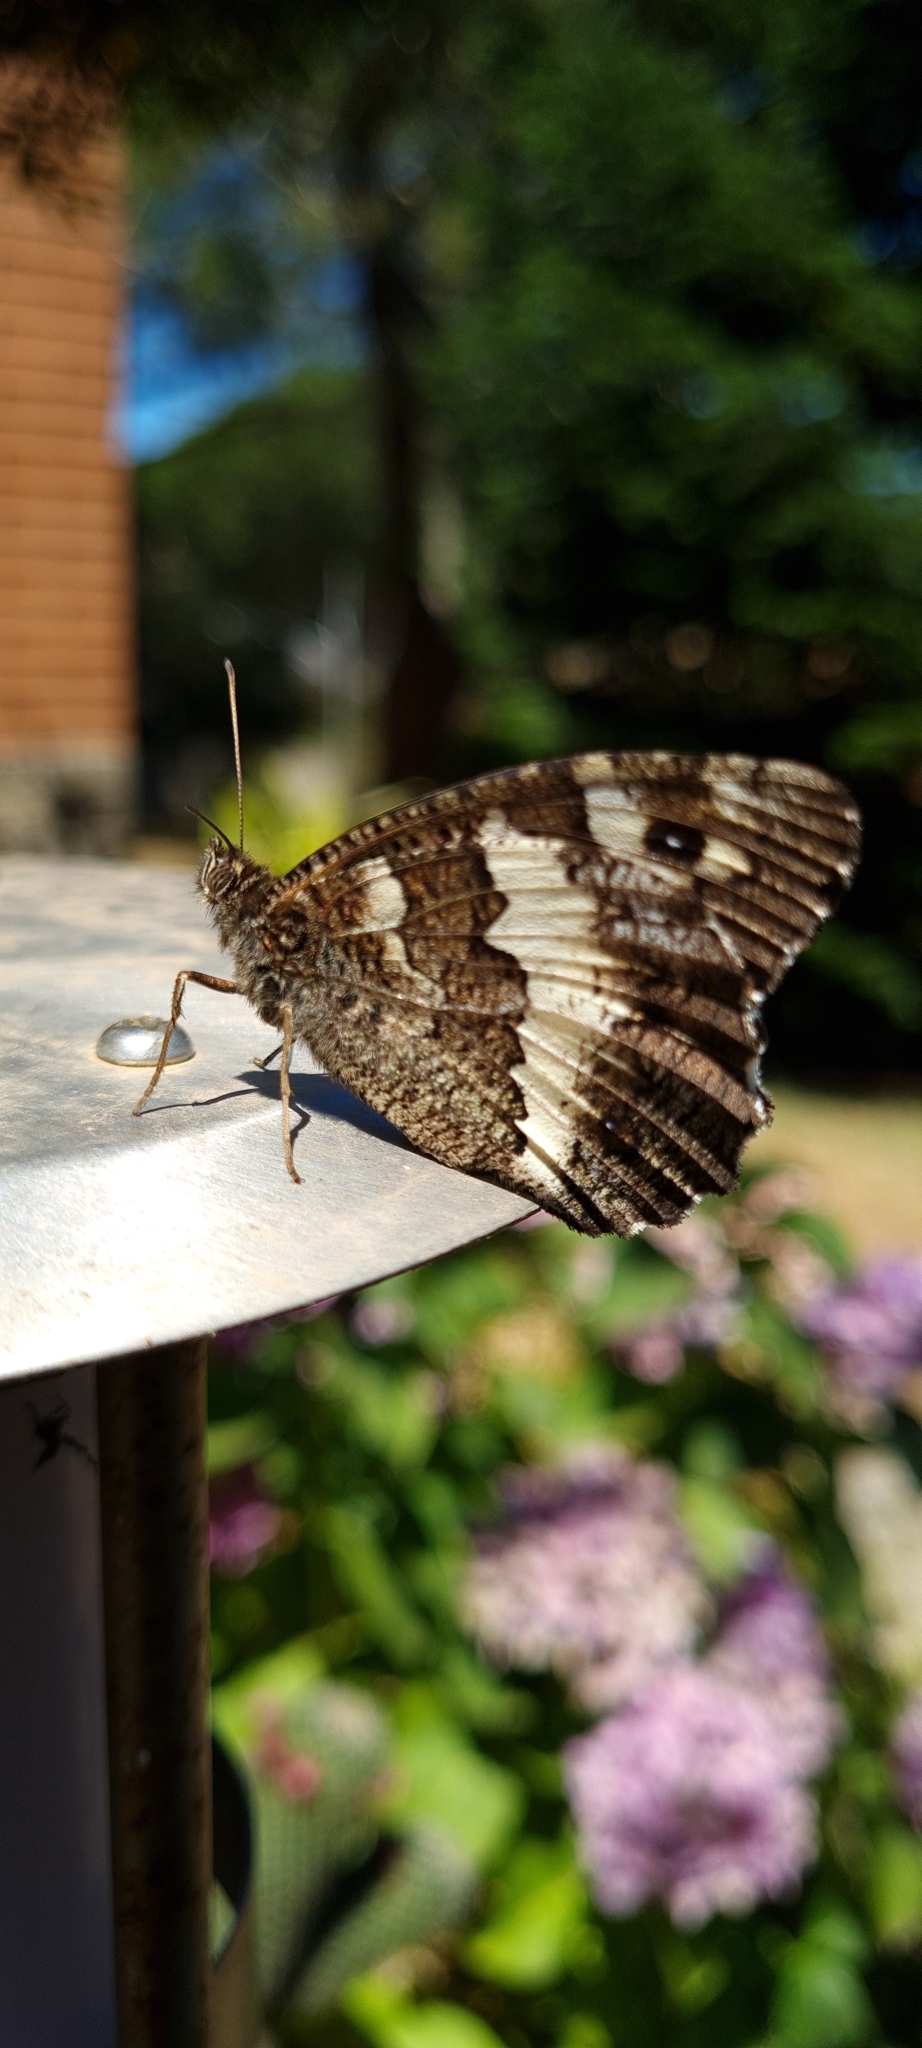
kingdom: Animalia
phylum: Arthropoda
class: Insecta
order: Lepidoptera
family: Lycaenidae
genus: Loweia
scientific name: Loweia tityrus
